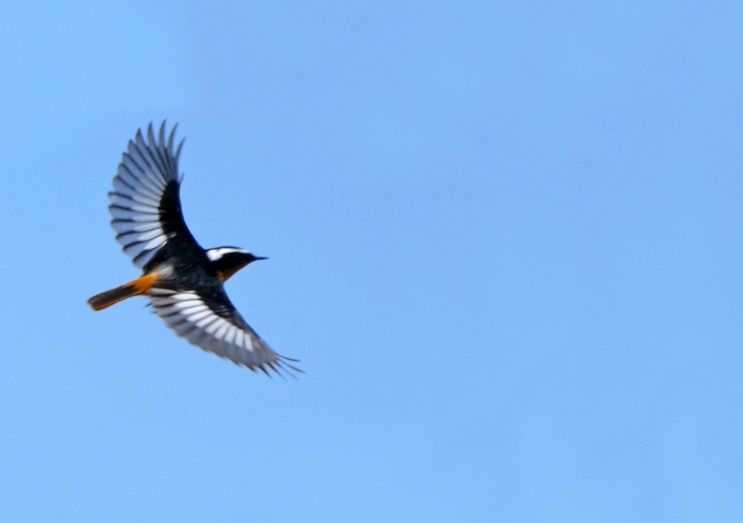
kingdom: Animalia
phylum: Chordata
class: Aves
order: Passeriformes
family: Muscicapidae
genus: Phoenicurus
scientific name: Phoenicurus moussieri
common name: Moussier's redstart
